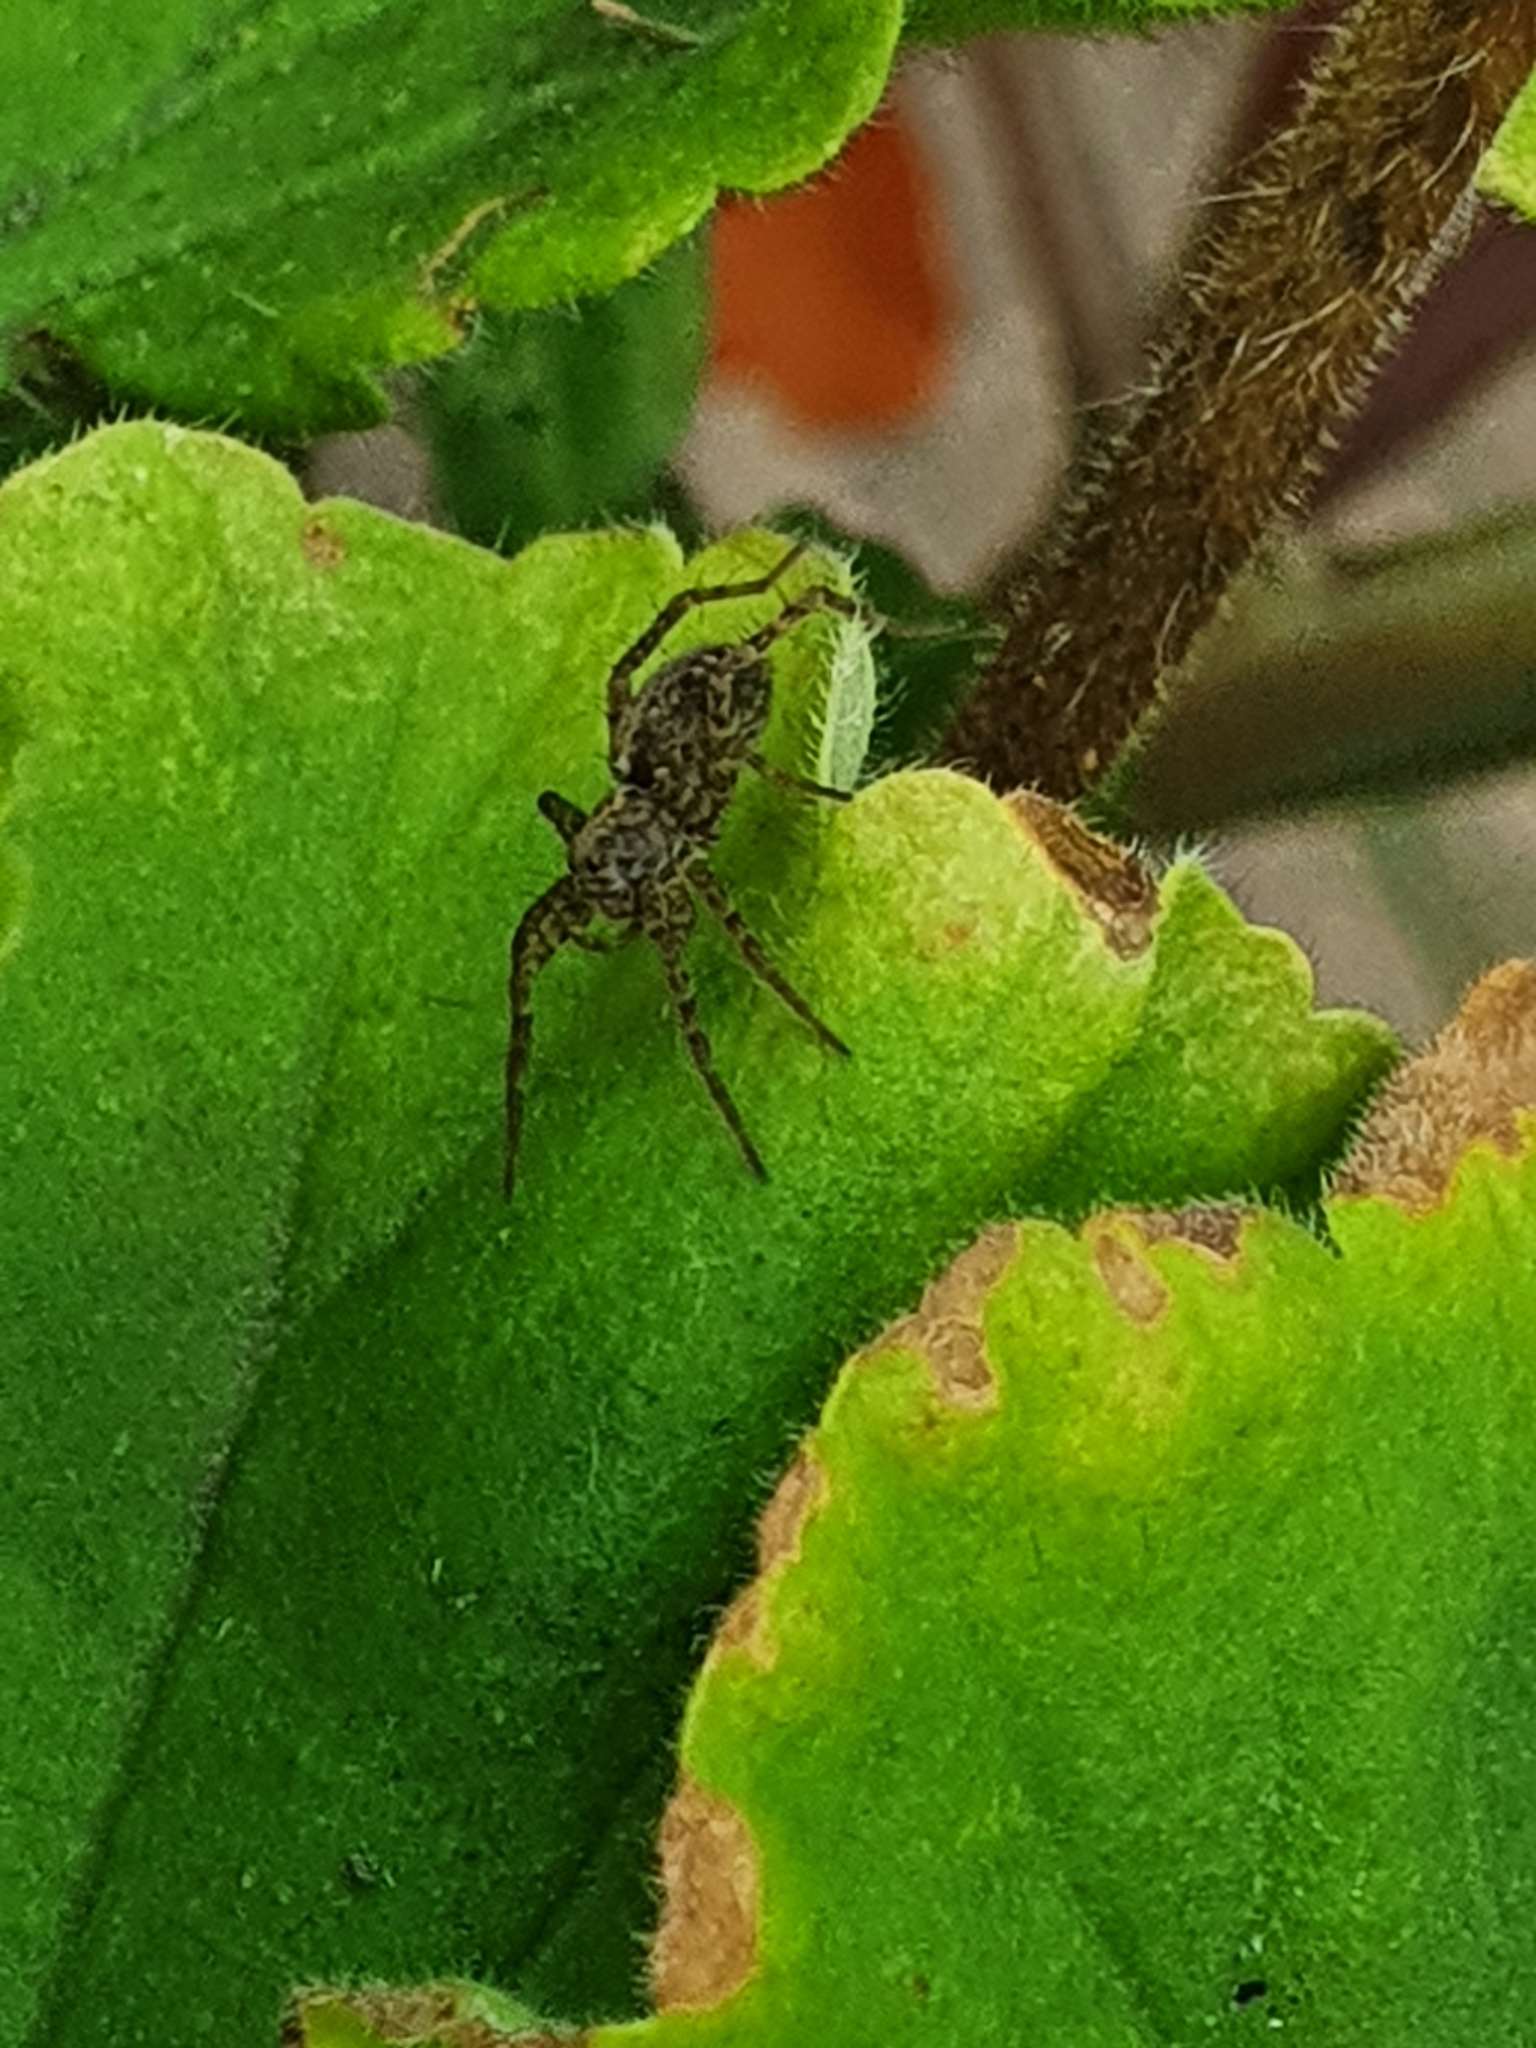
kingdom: Animalia
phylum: Arthropoda
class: Arachnida
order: Araneae
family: Lycosidae
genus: Pardosa
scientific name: Pardosa amentata
